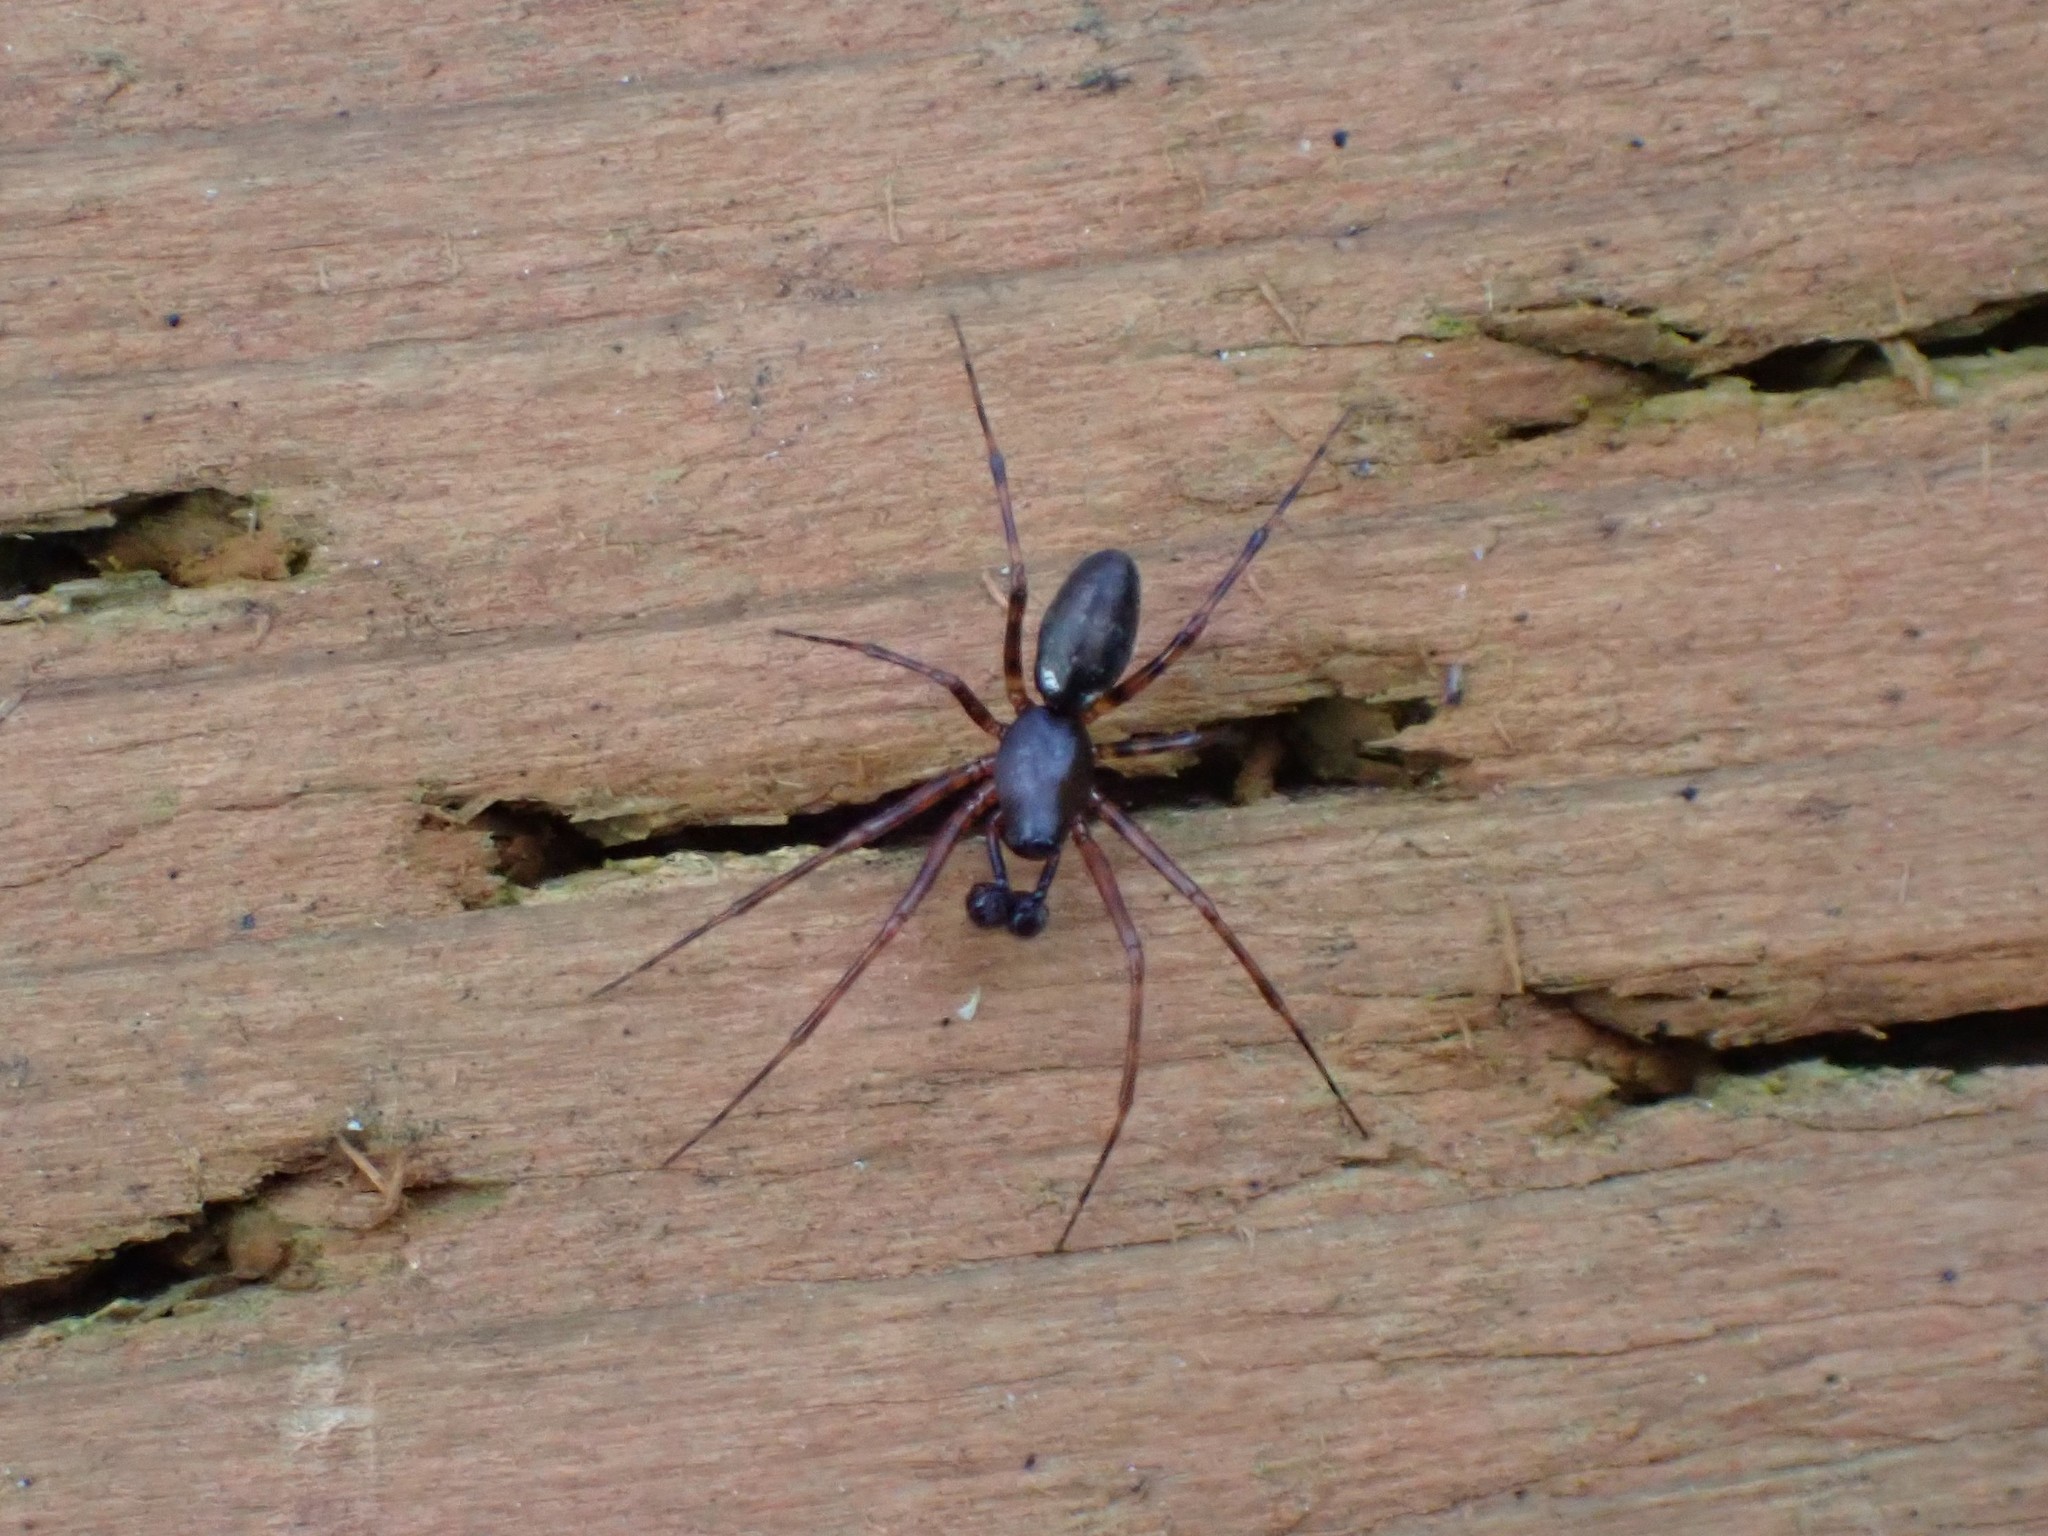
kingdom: Animalia
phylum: Arthropoda
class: Arachnida
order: Araneae
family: Linyphiidae
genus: Neriene
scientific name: Neriene digna
